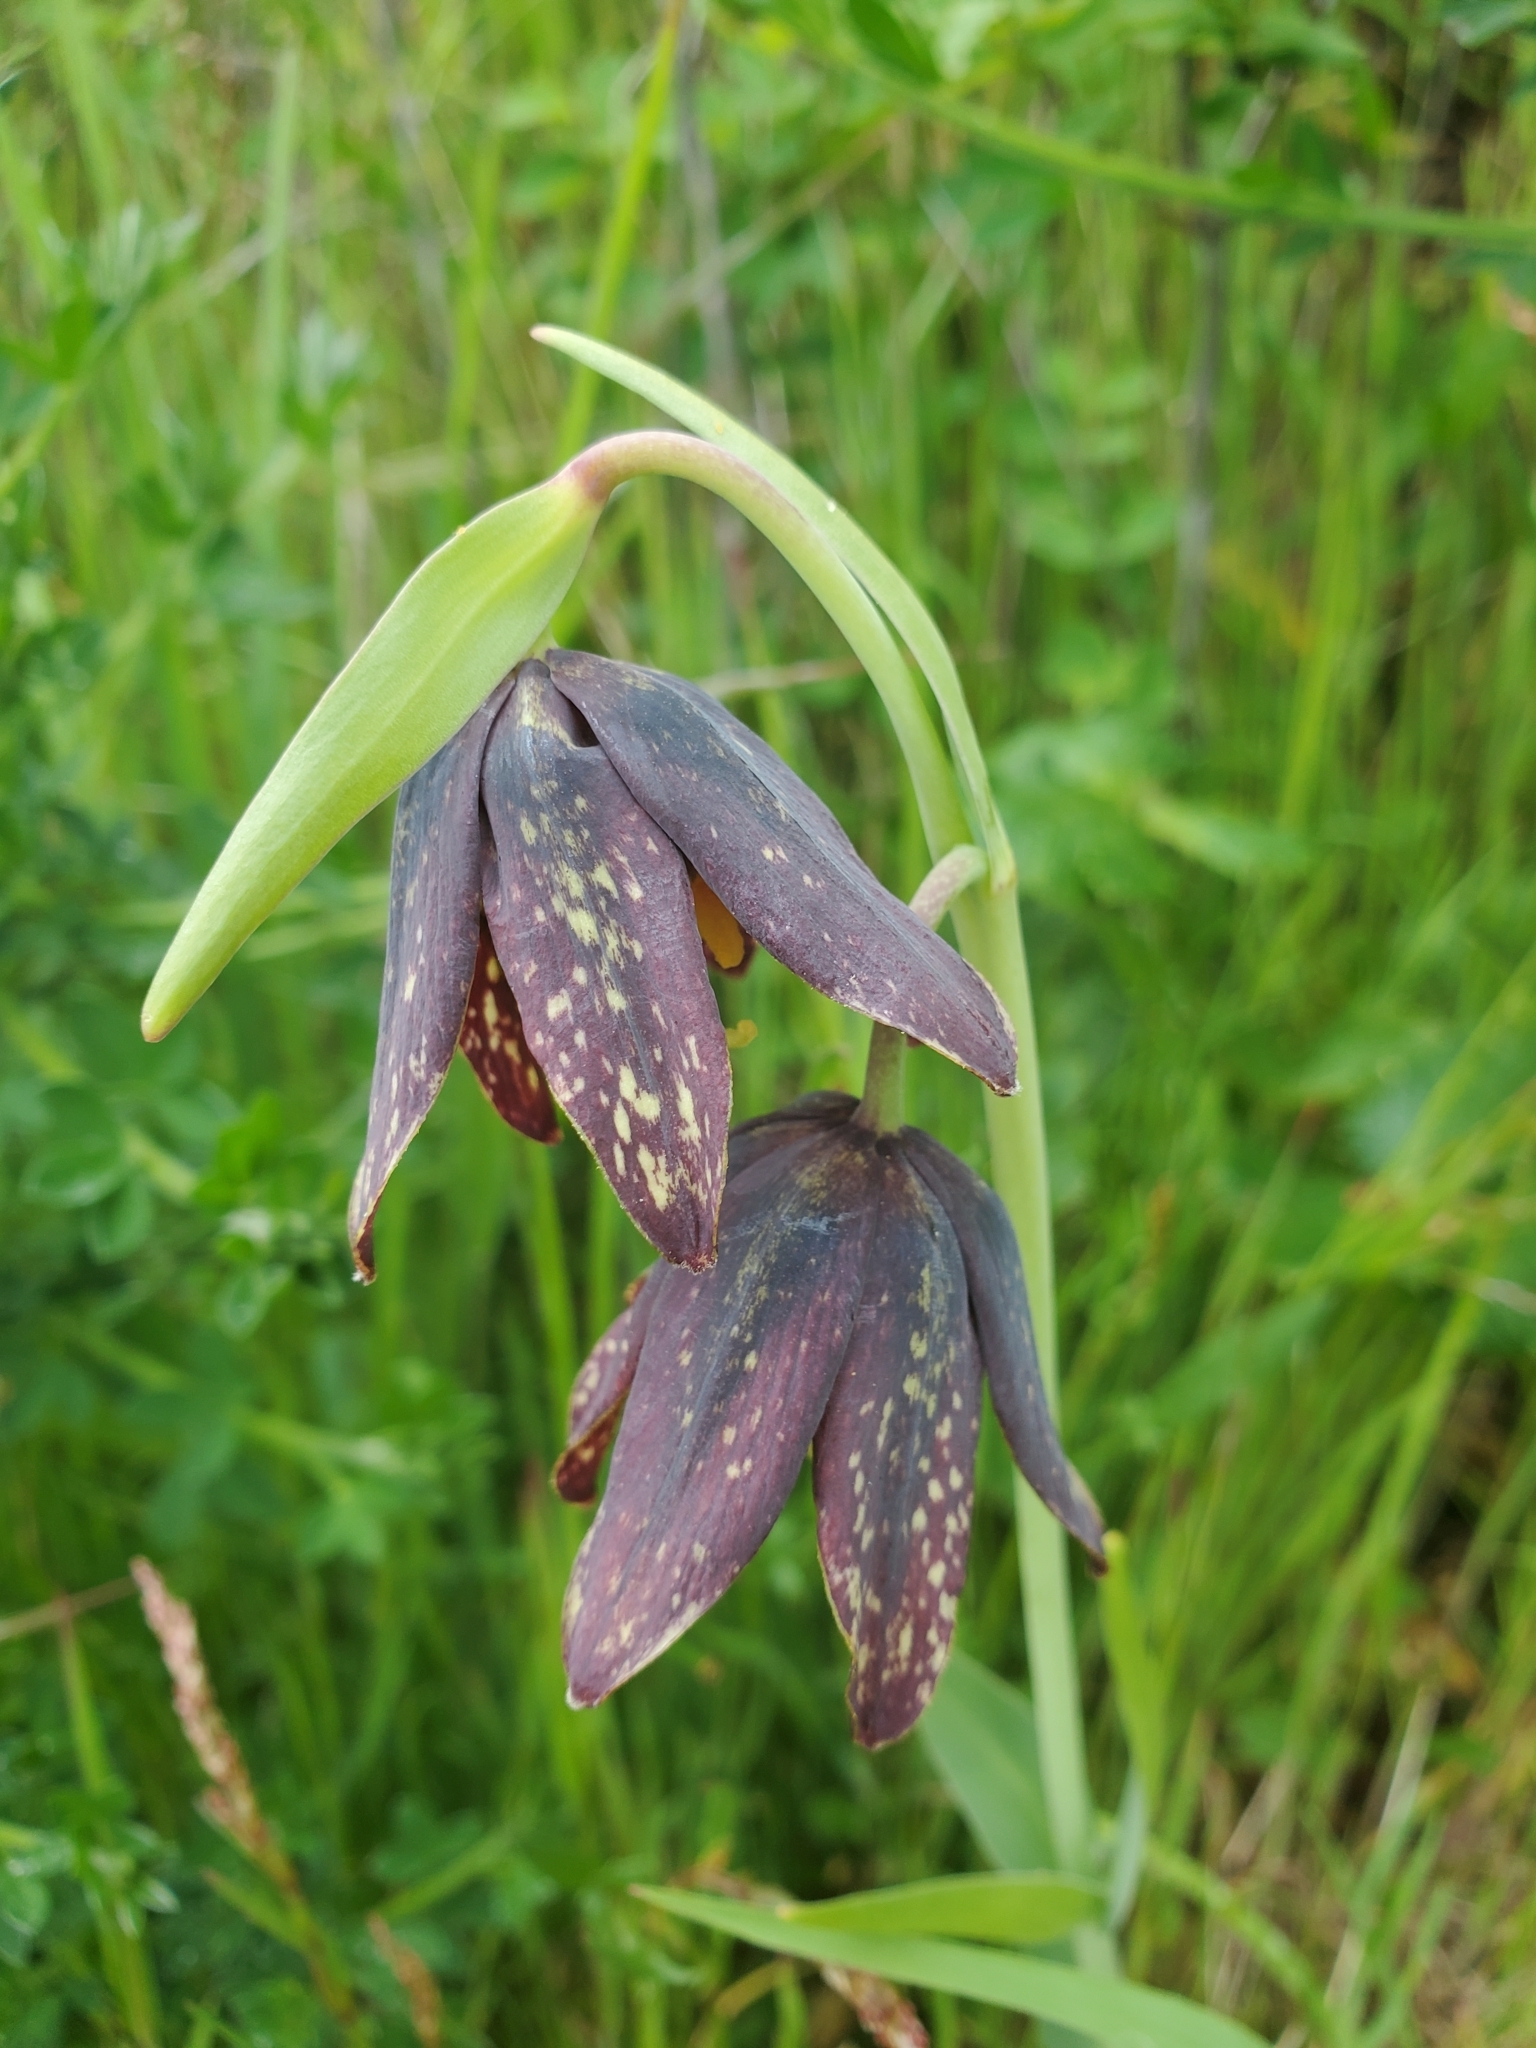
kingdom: Plantae
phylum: Tracheophyta
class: Liliopsida
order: Liliales
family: Liliaceae
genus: Fritillaria
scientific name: Fritillaria affinis
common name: Ojai fritillary
